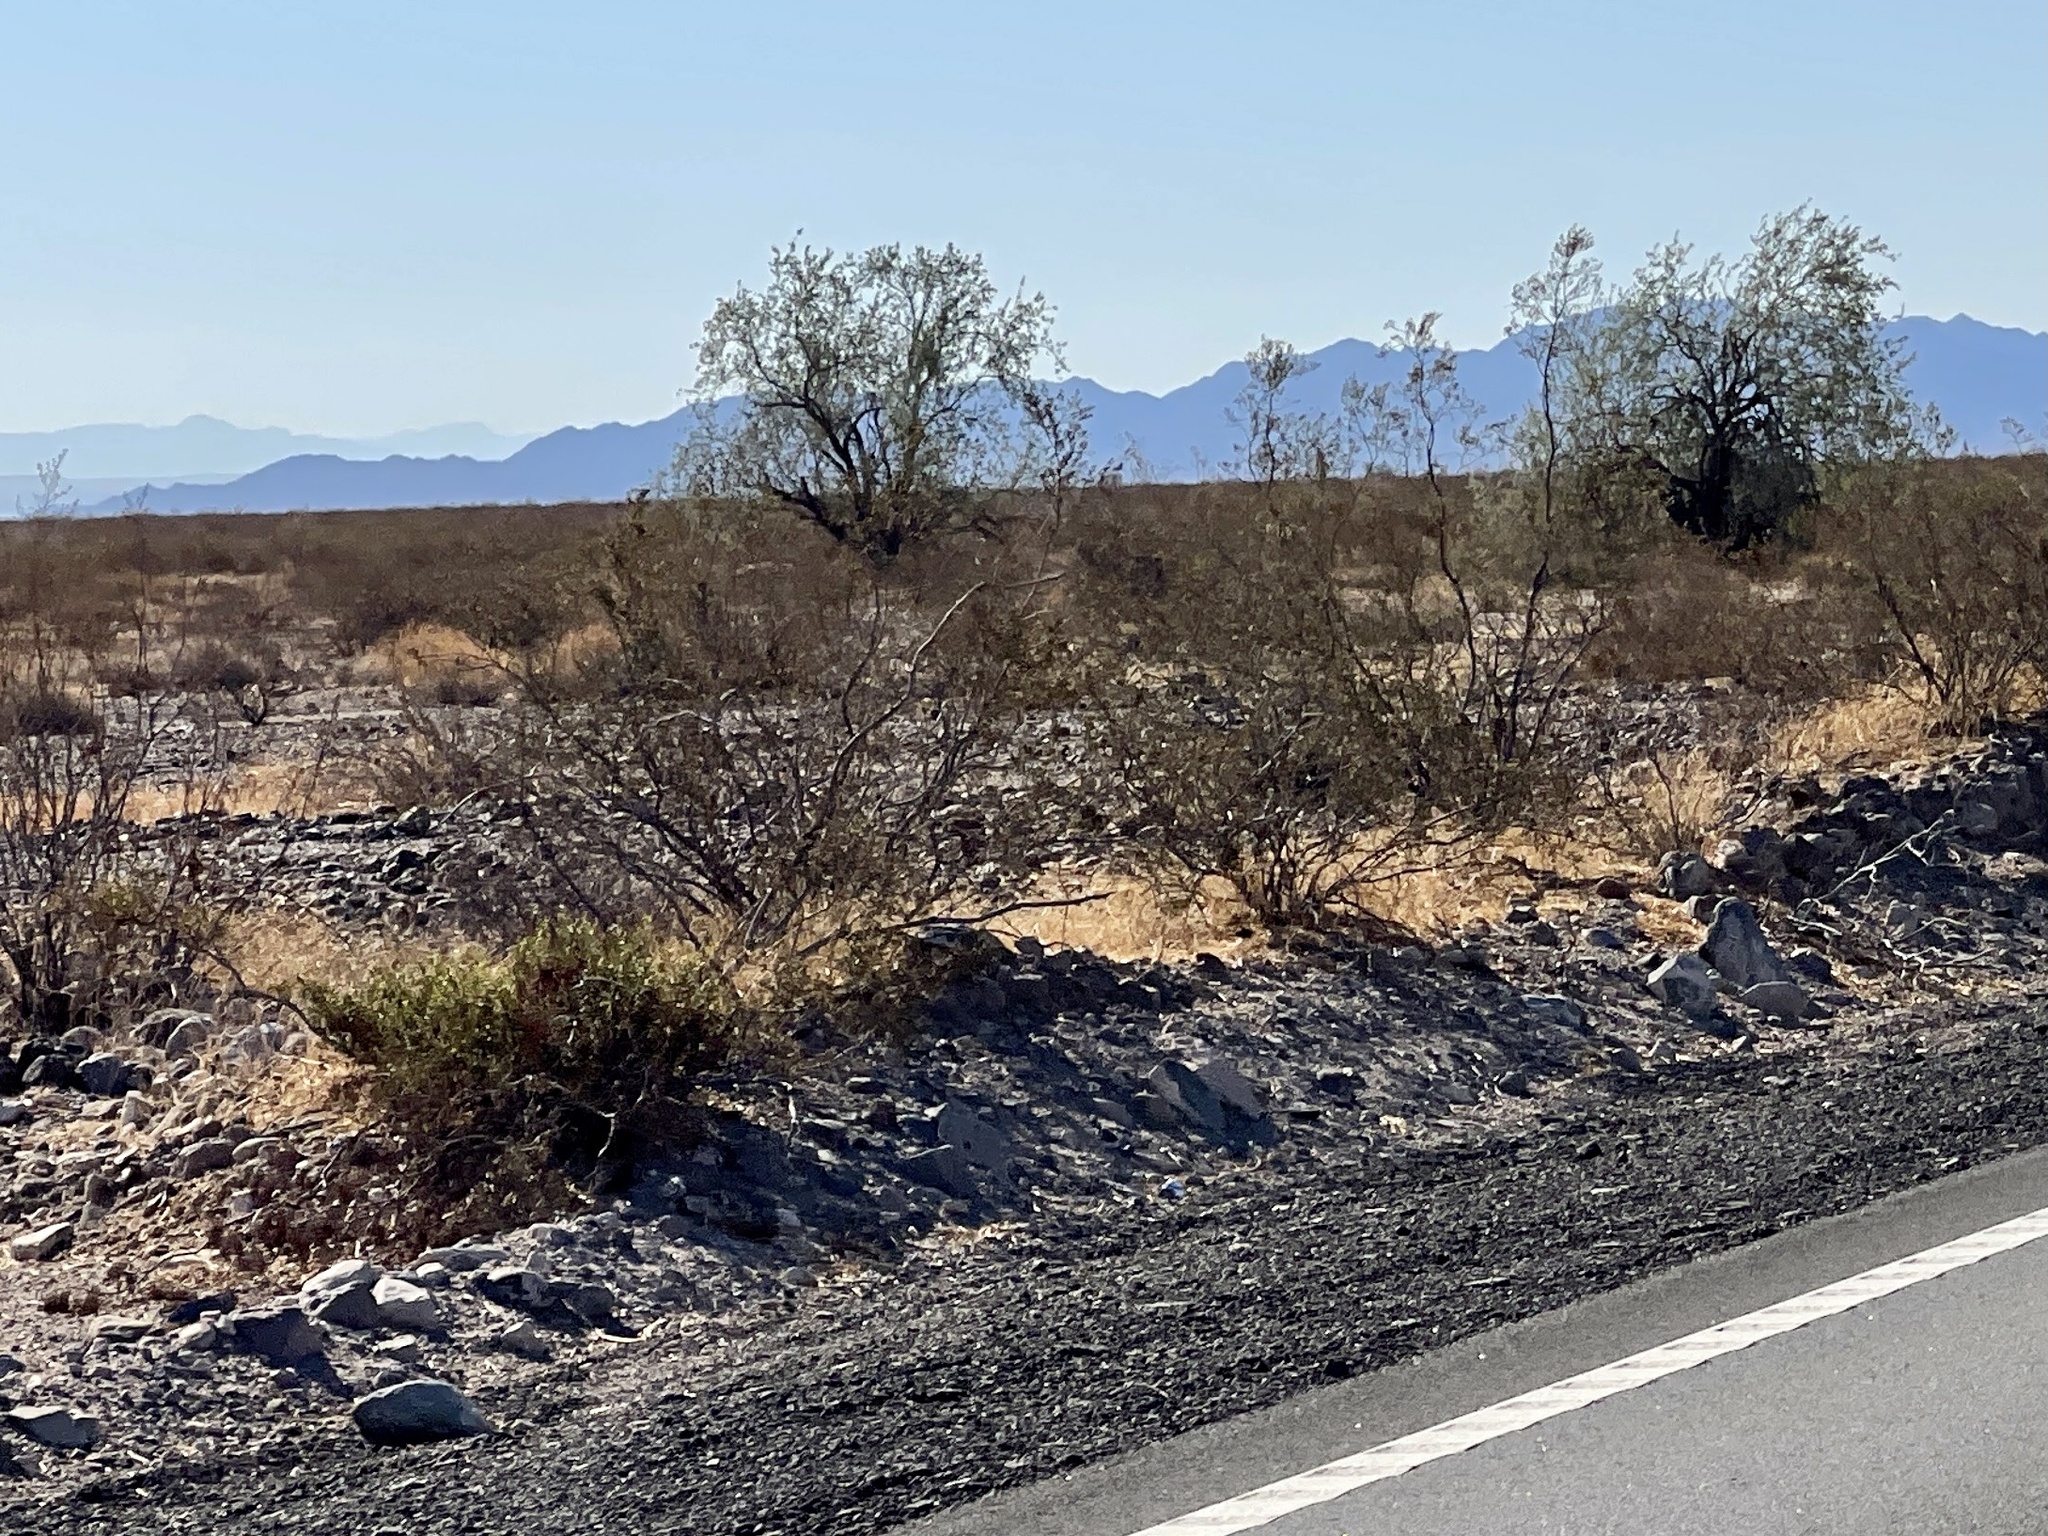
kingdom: Plantae
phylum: Tracheophyta
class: Magnoliopsida
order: Zygophyllales
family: Zygophyllaceae
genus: Larrea
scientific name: Larrea tridentata
